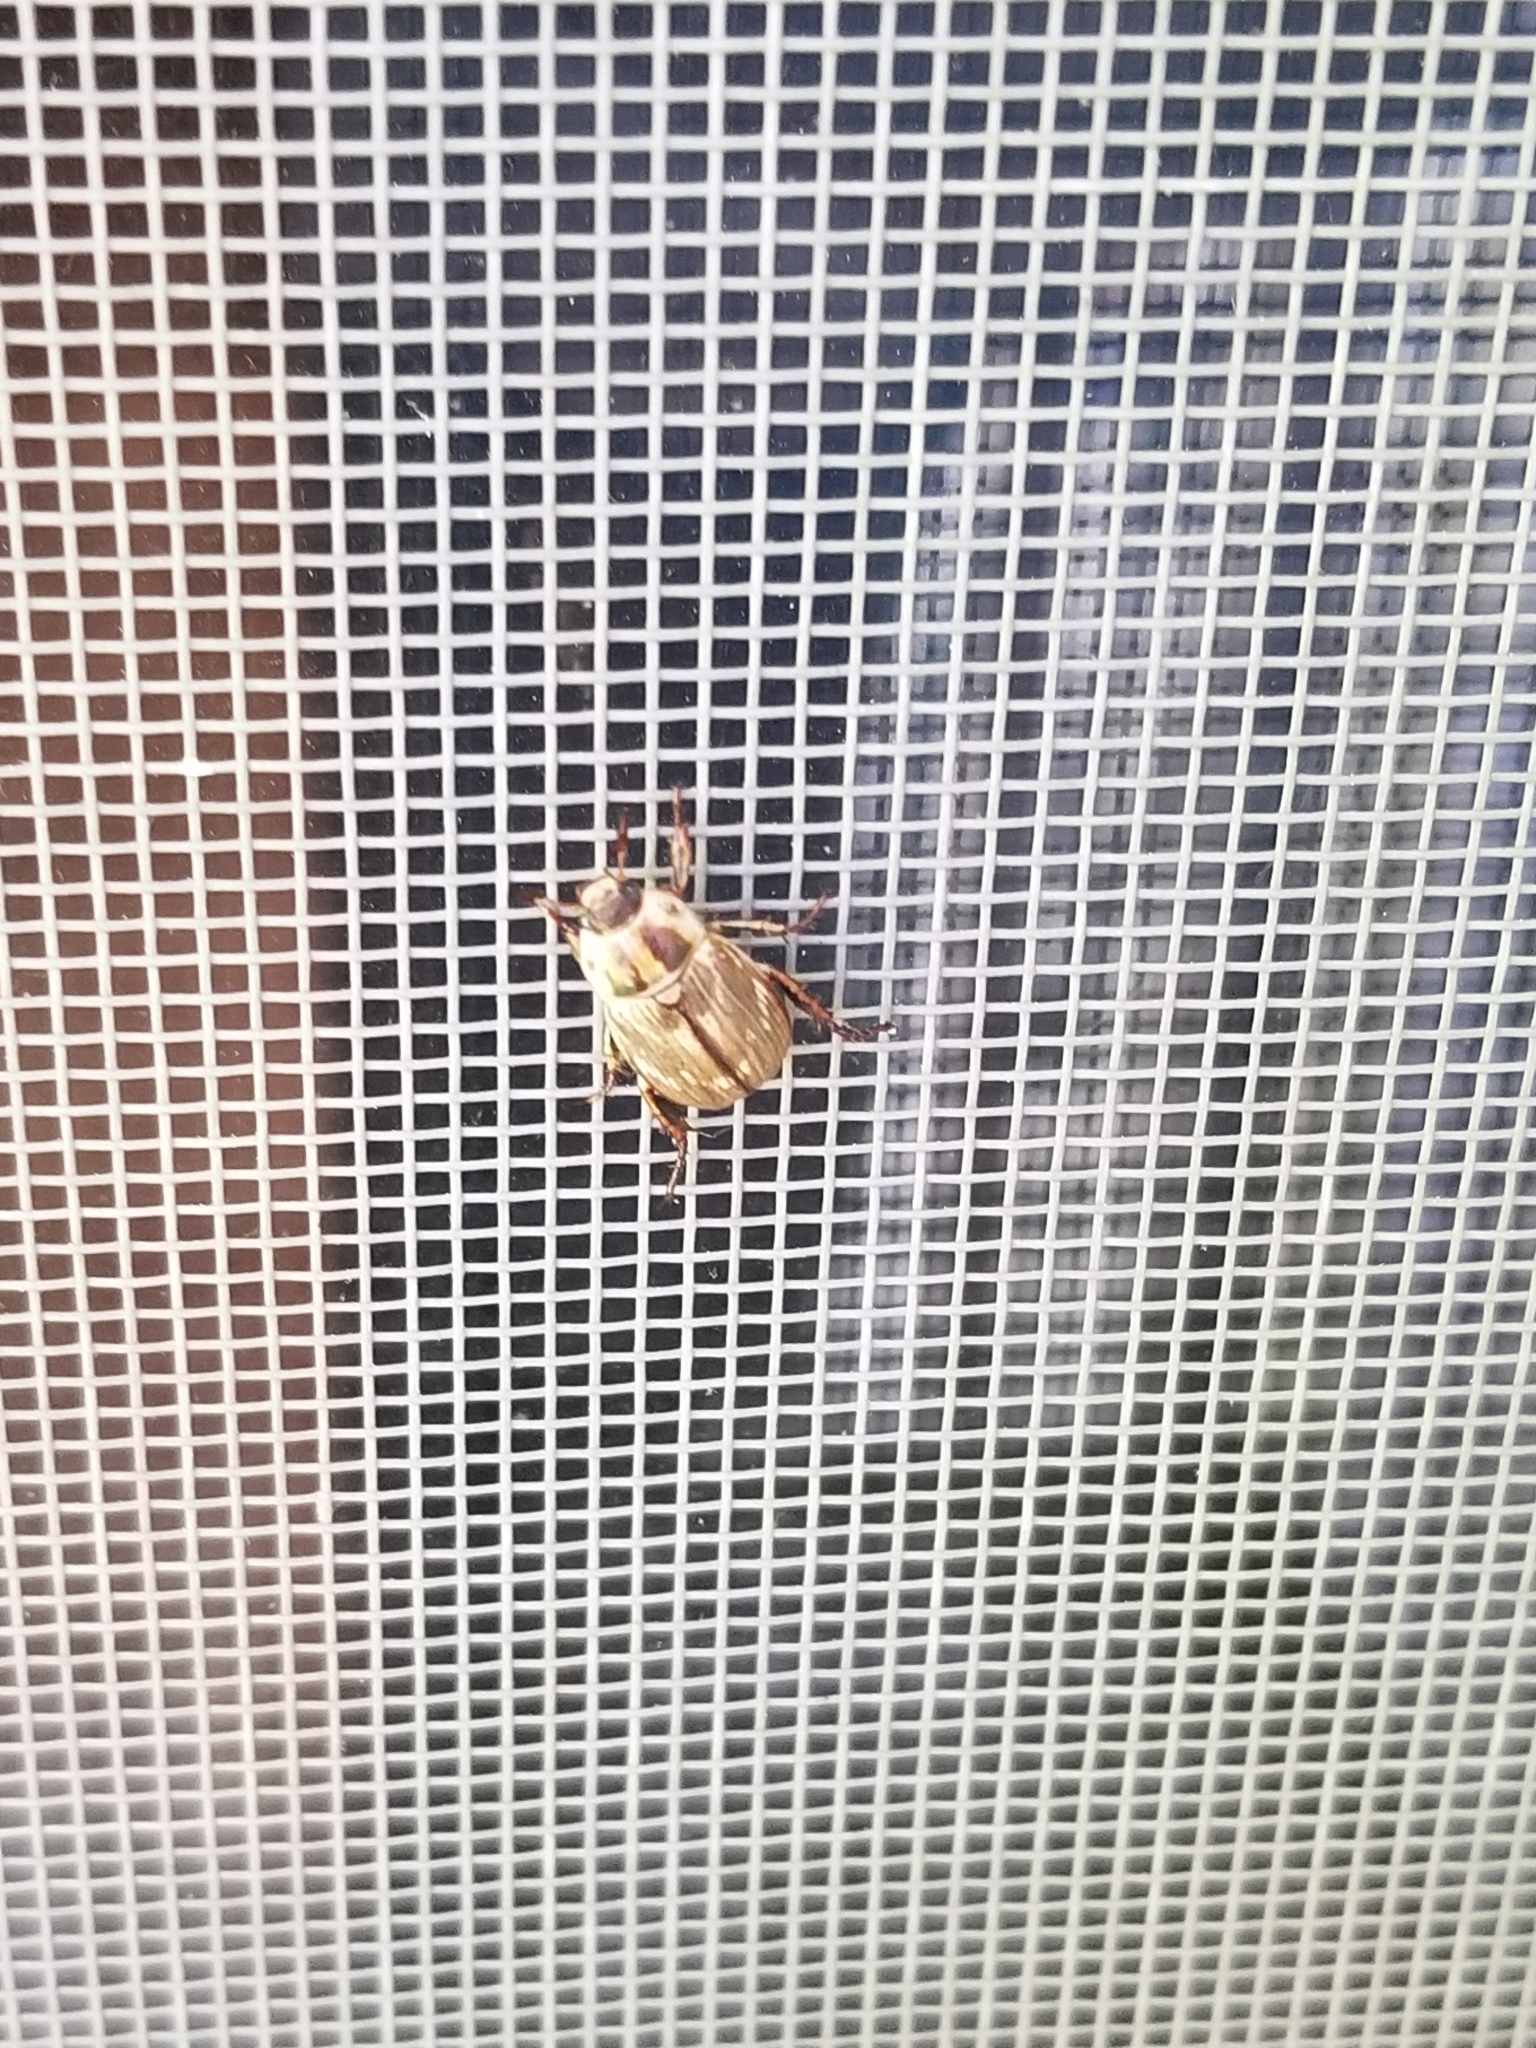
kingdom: Animalia
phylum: Arthropoda
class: Insecta
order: Coleoptera
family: Scarabaeidae
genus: Exomala
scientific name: Exomala orientalis
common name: Oriental beetle
